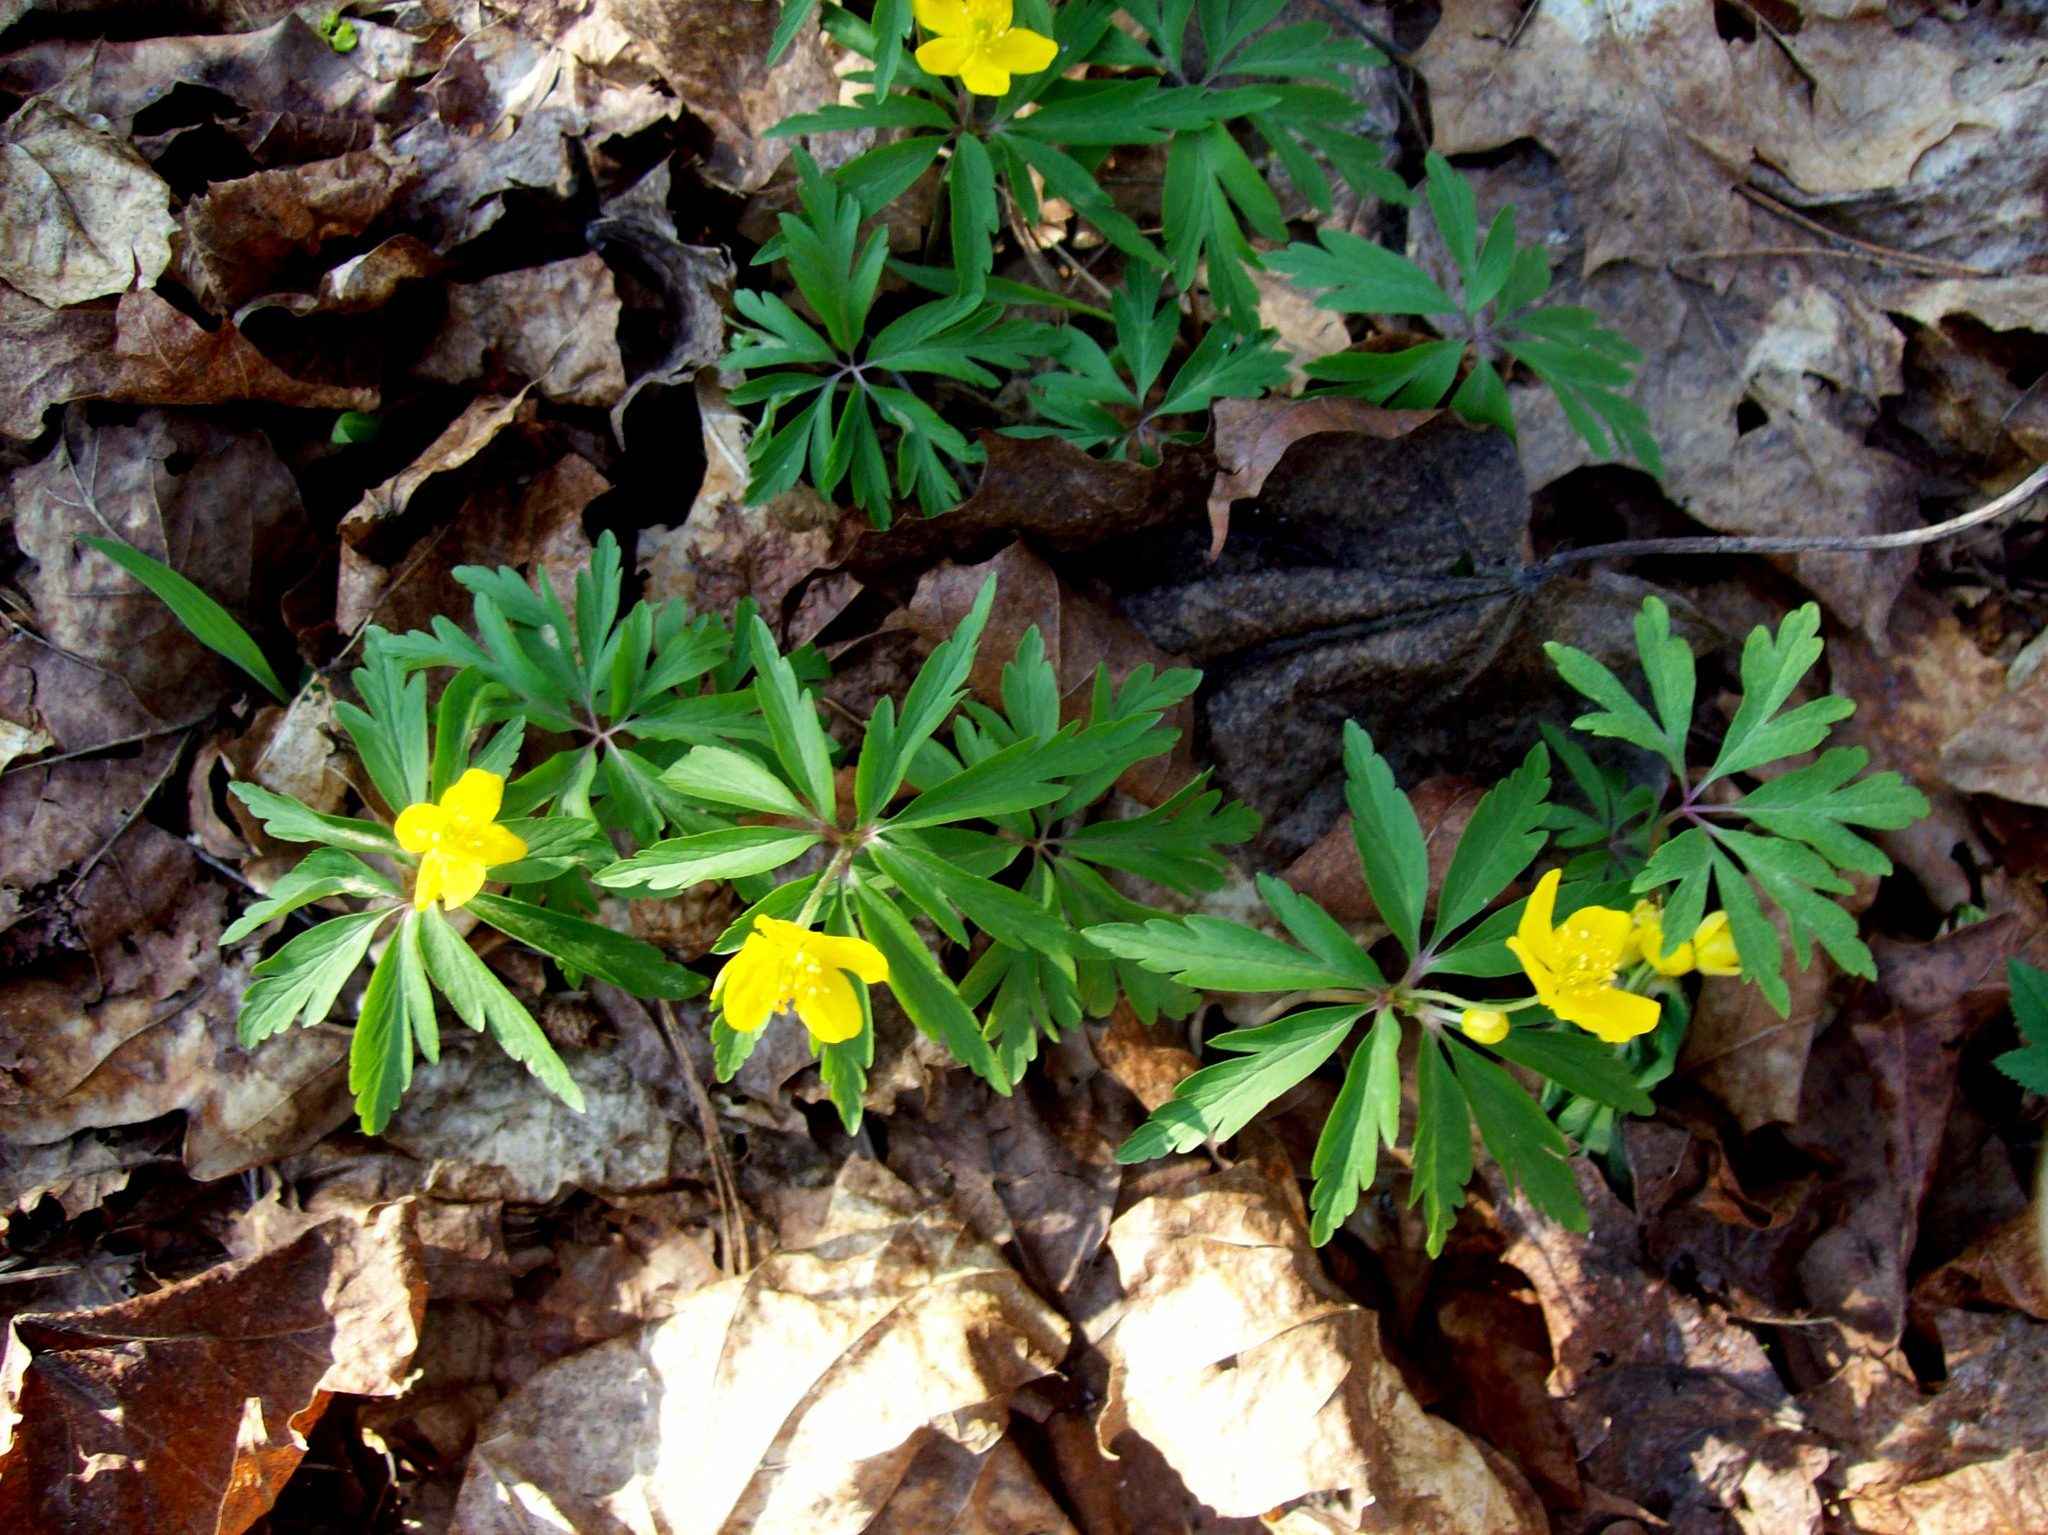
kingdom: Plantae
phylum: Tracheophyta
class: Magnoliopsida
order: Ranunculales
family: Ranunculaceae
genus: Anemone
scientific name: Anemone ranunculoides
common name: Yellow anemone
